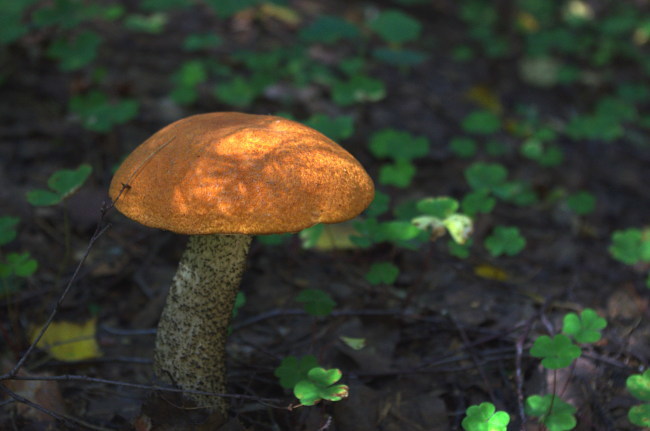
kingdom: Fungi
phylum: Basidiomycota
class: Agaricomycetes
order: Boletales
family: Boletaceae
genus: Leccinum
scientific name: Leccinum versipelle
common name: Orange birch bolete
